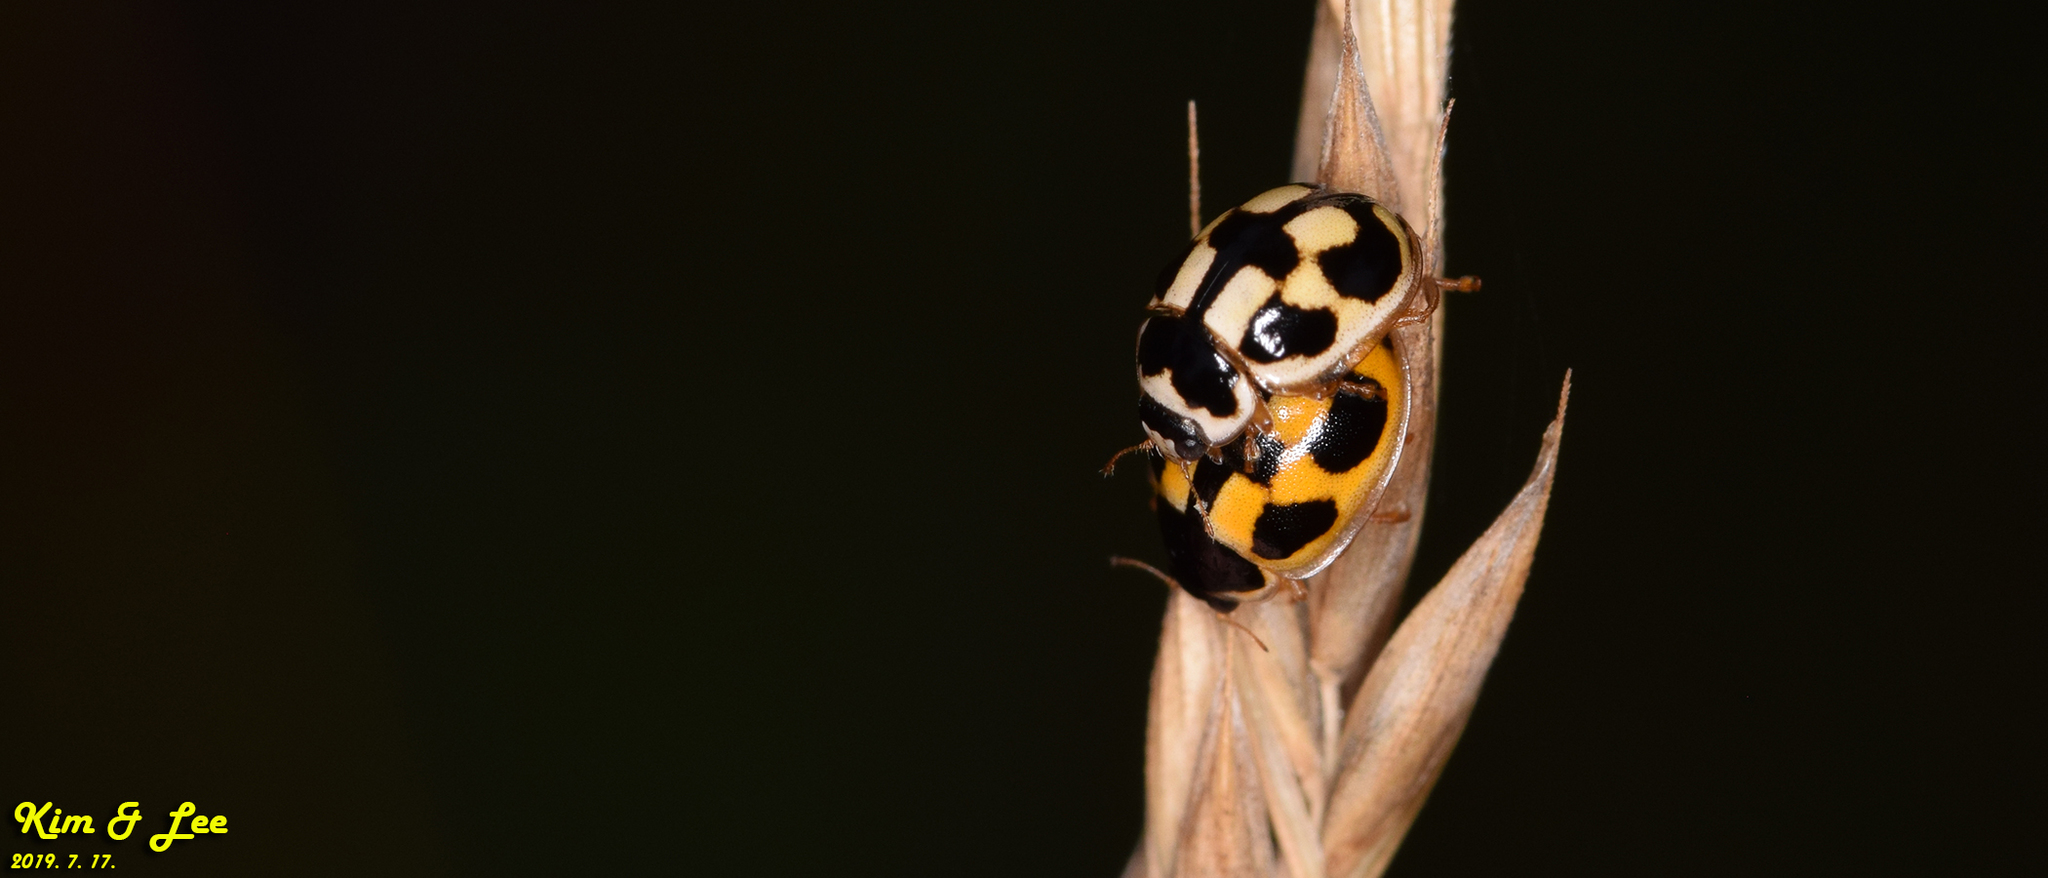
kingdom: Animalia
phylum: Arthropoda
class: Insecta
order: Coleoptera
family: Coccinellidae
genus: Propylea
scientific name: Propylea japonica
